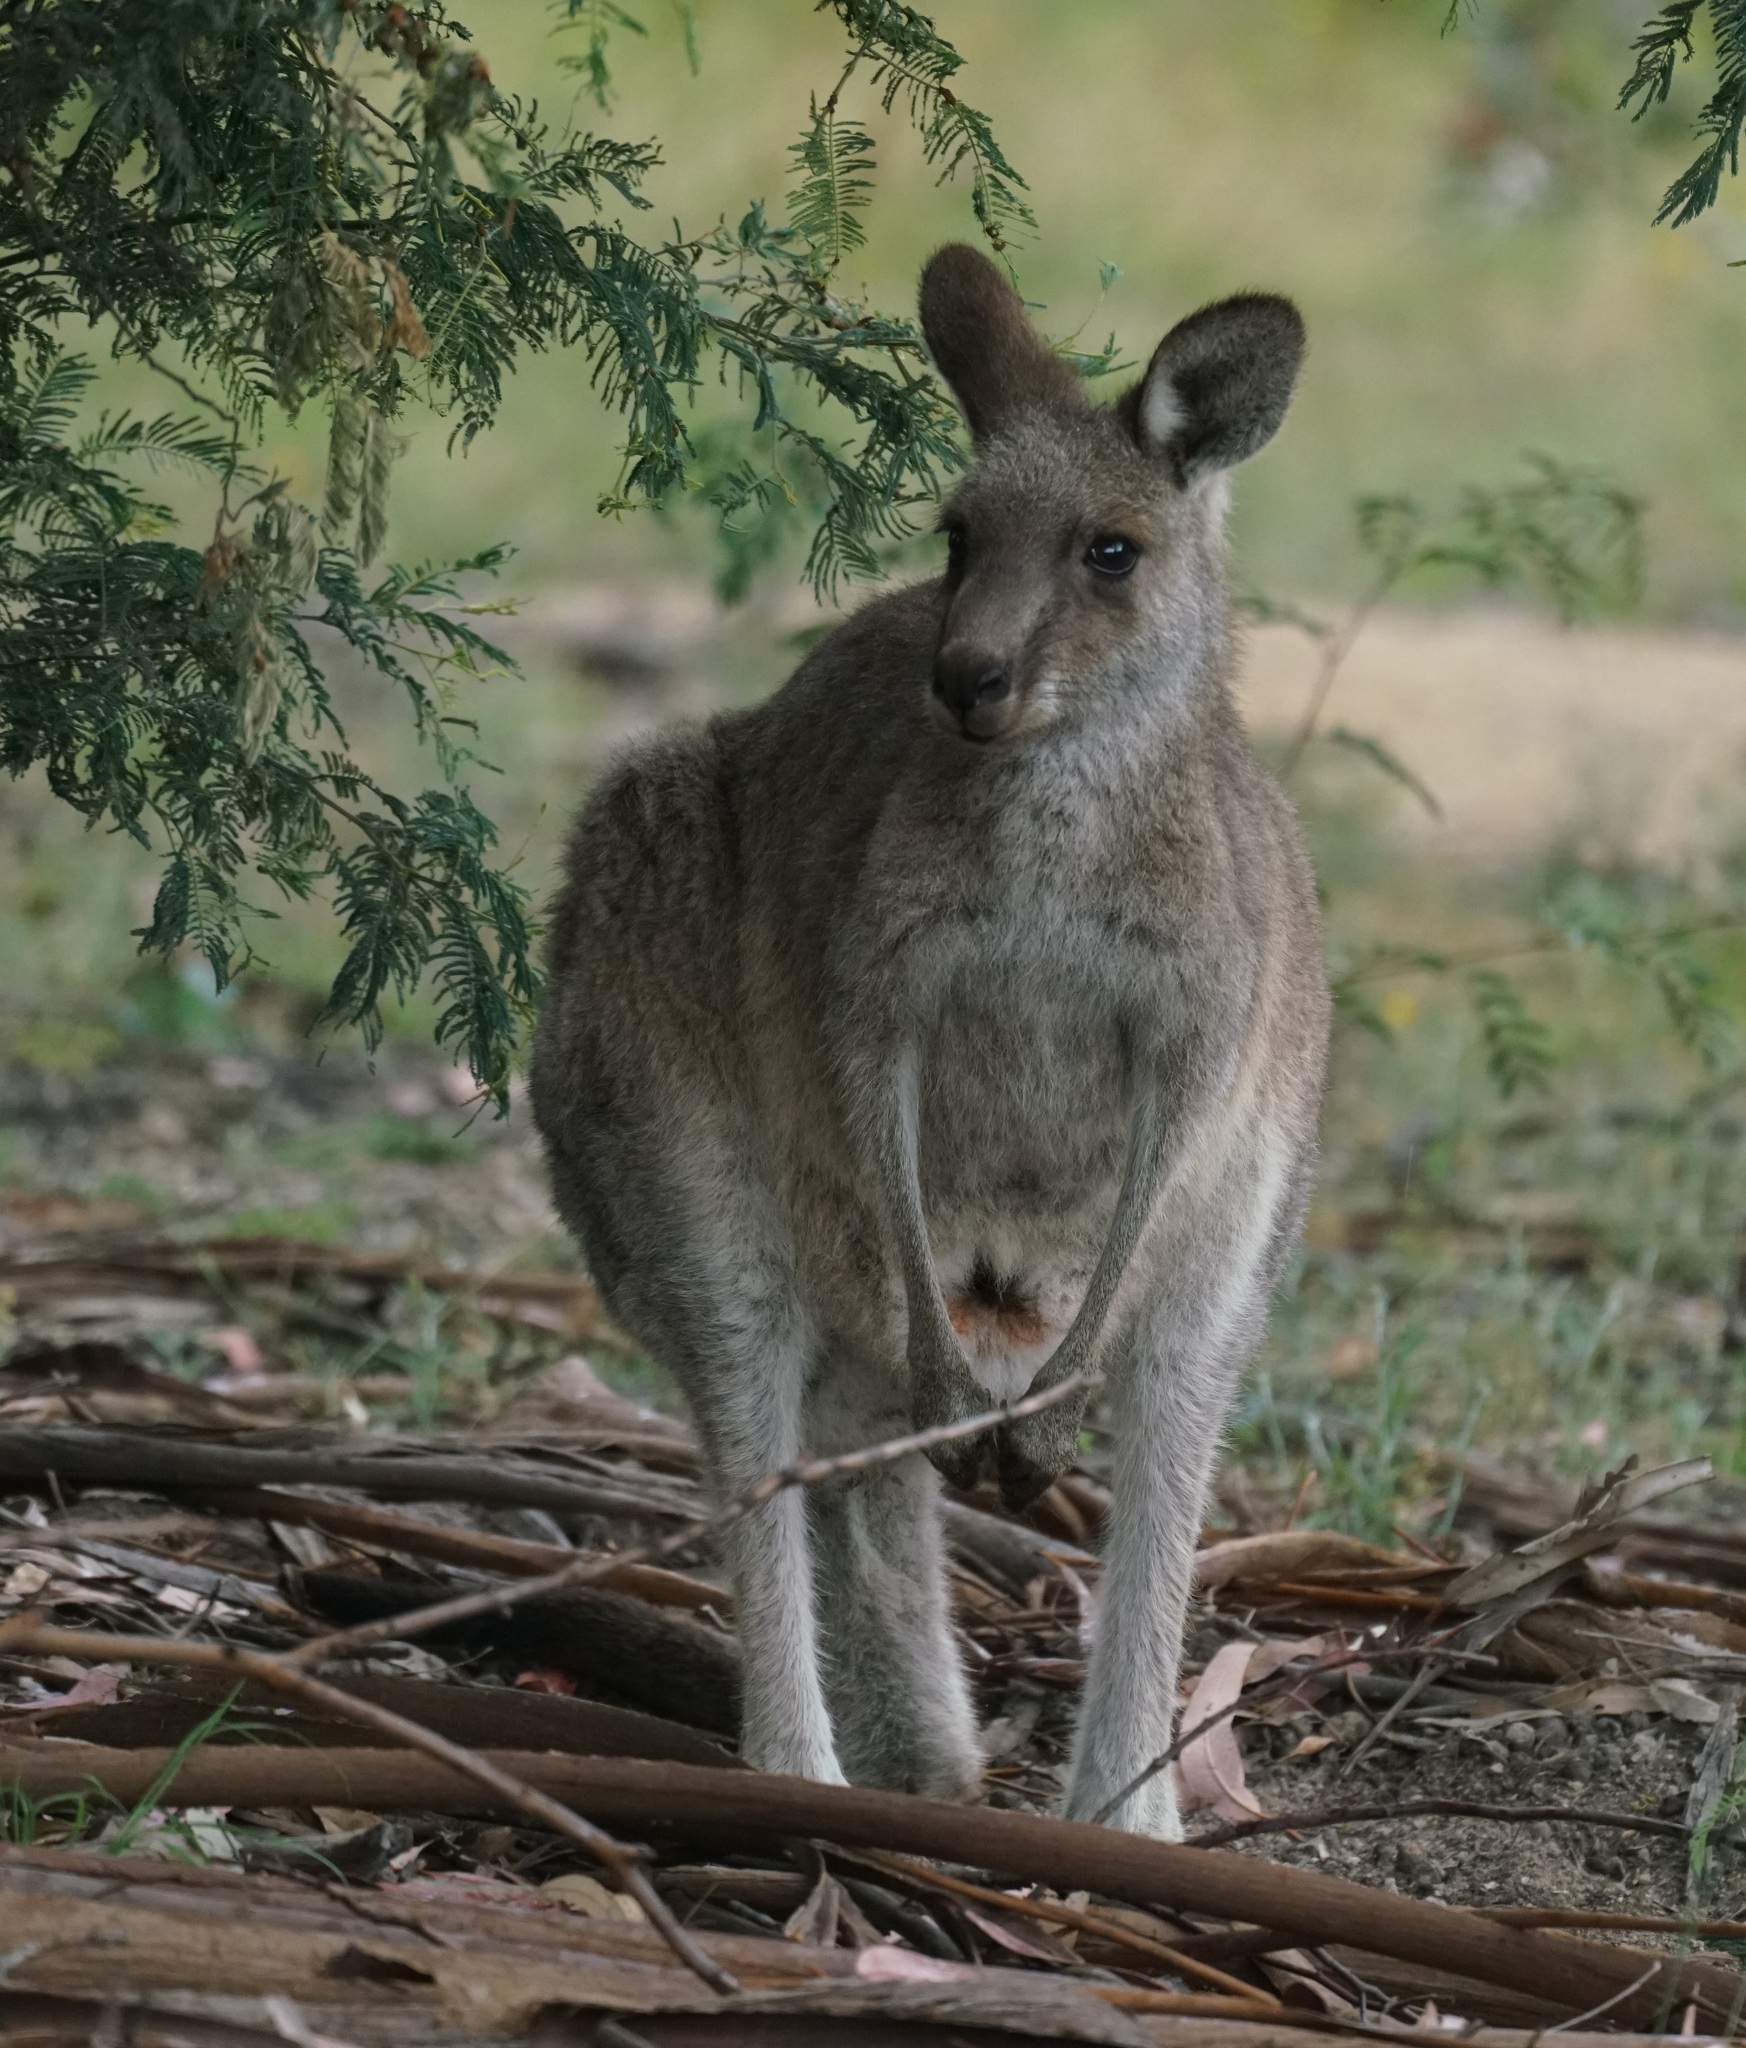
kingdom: Animalia
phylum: Chordata
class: Mammalia
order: Diprotodontia
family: Macropodidae
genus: Macropus
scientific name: Macropus giganteus
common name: Eastern grey kangaroo
